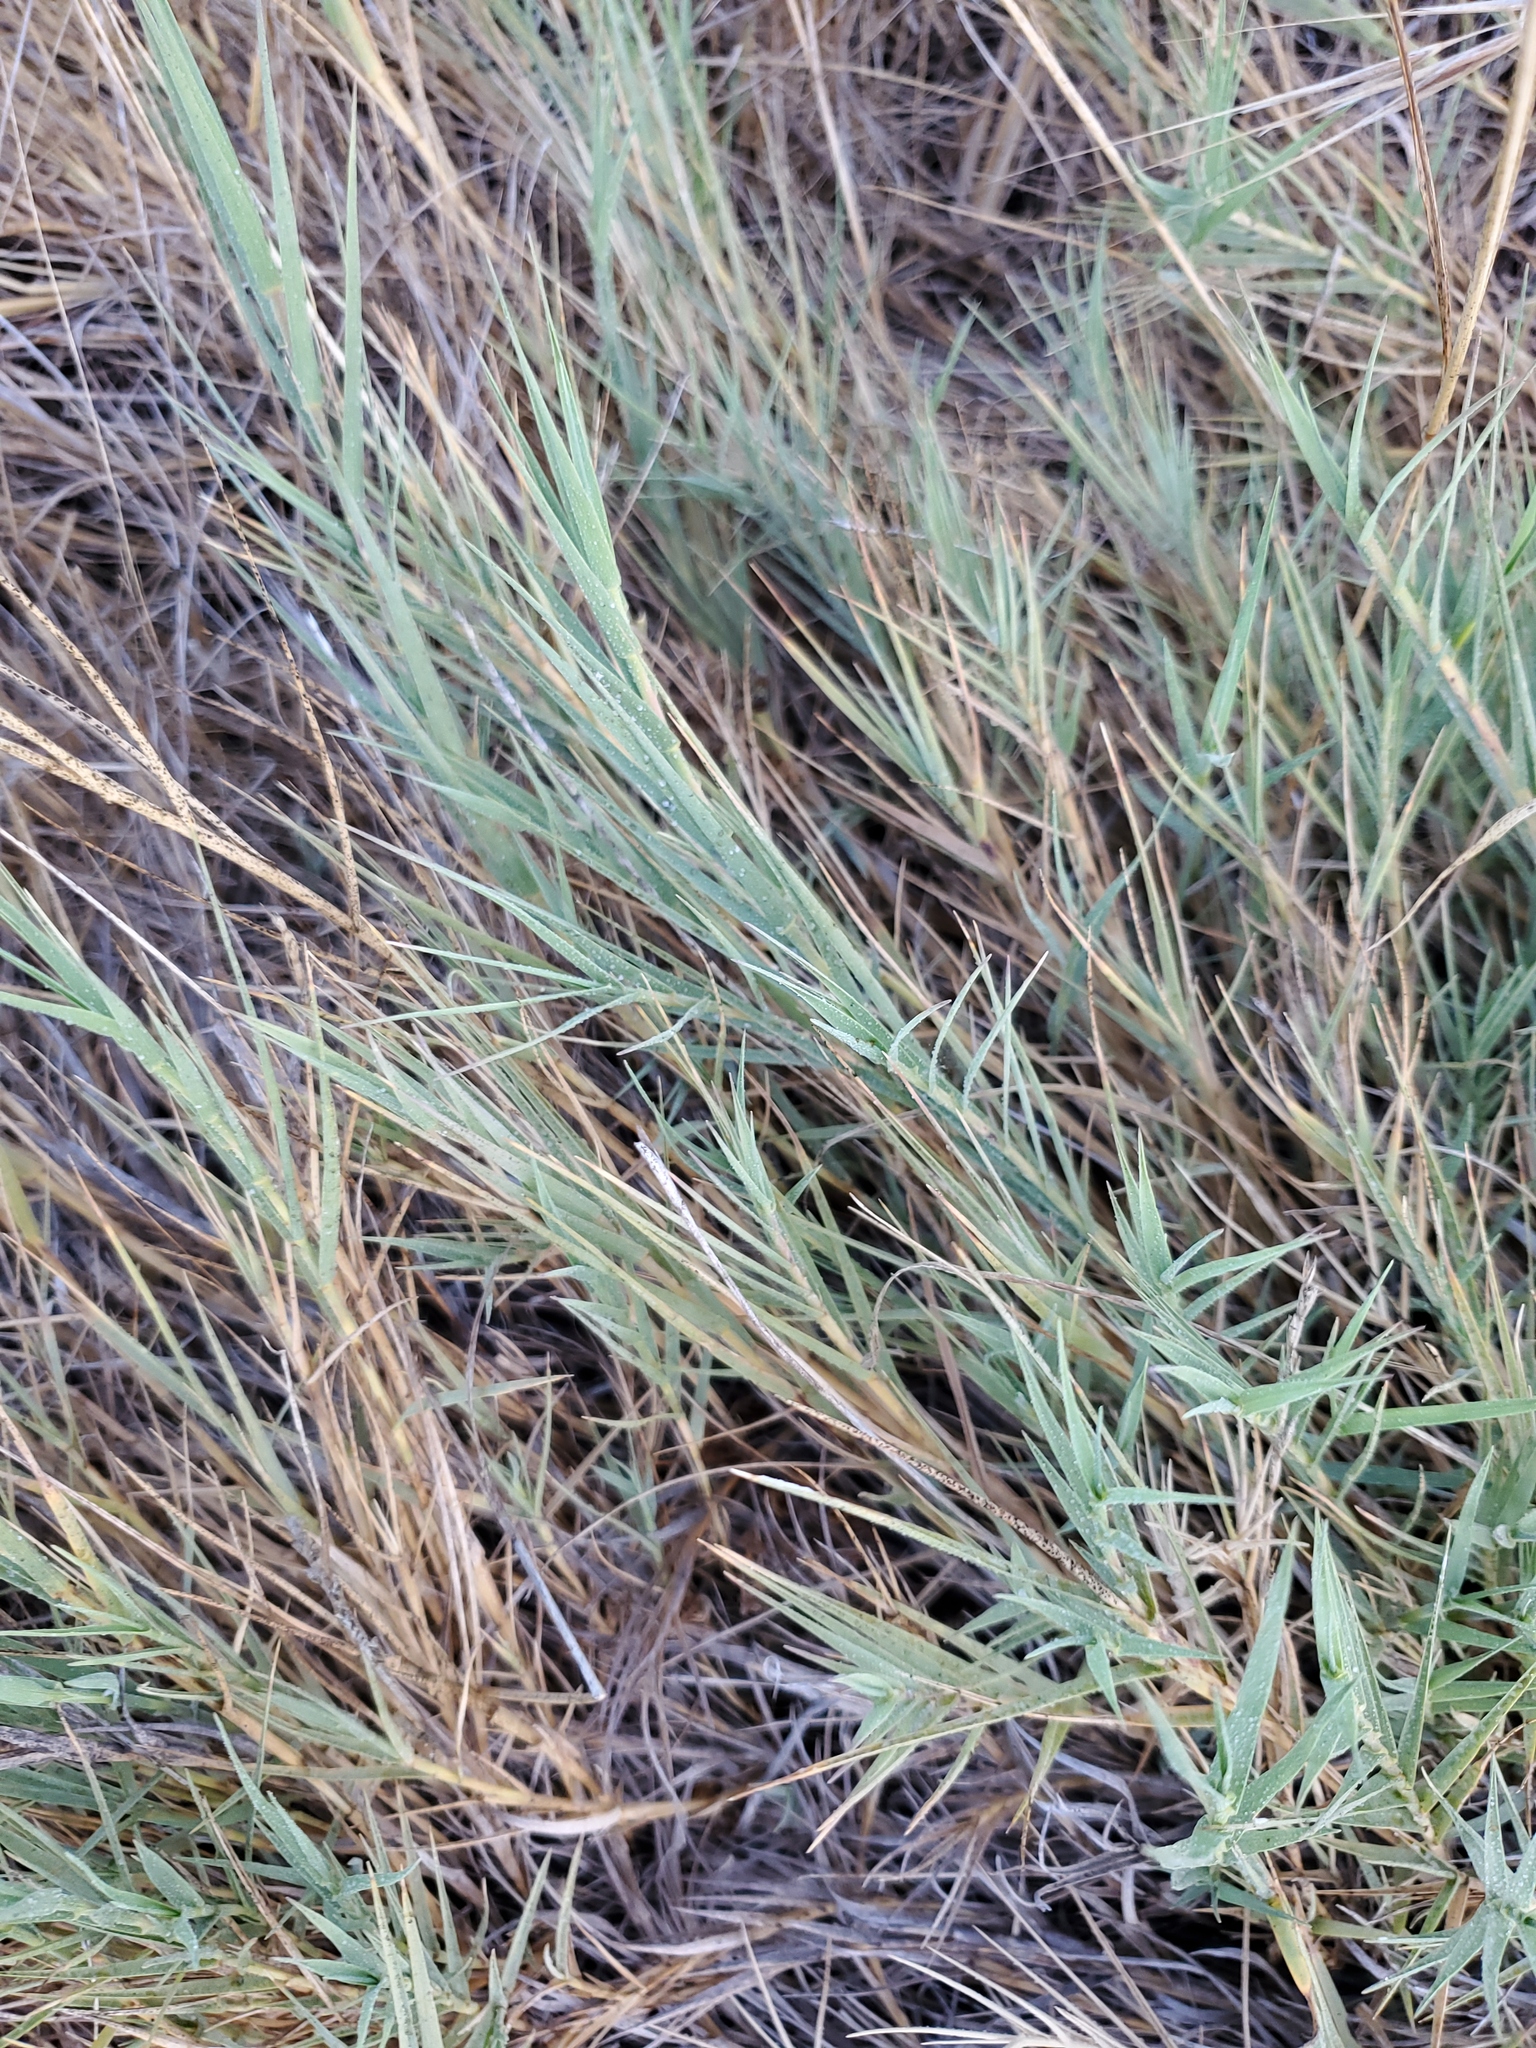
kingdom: Plantae
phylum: Tracheophyta
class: Liliopsida
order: Poales
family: Poaceae
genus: Distichlis
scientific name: Distichlis spicata
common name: Saltgrass
